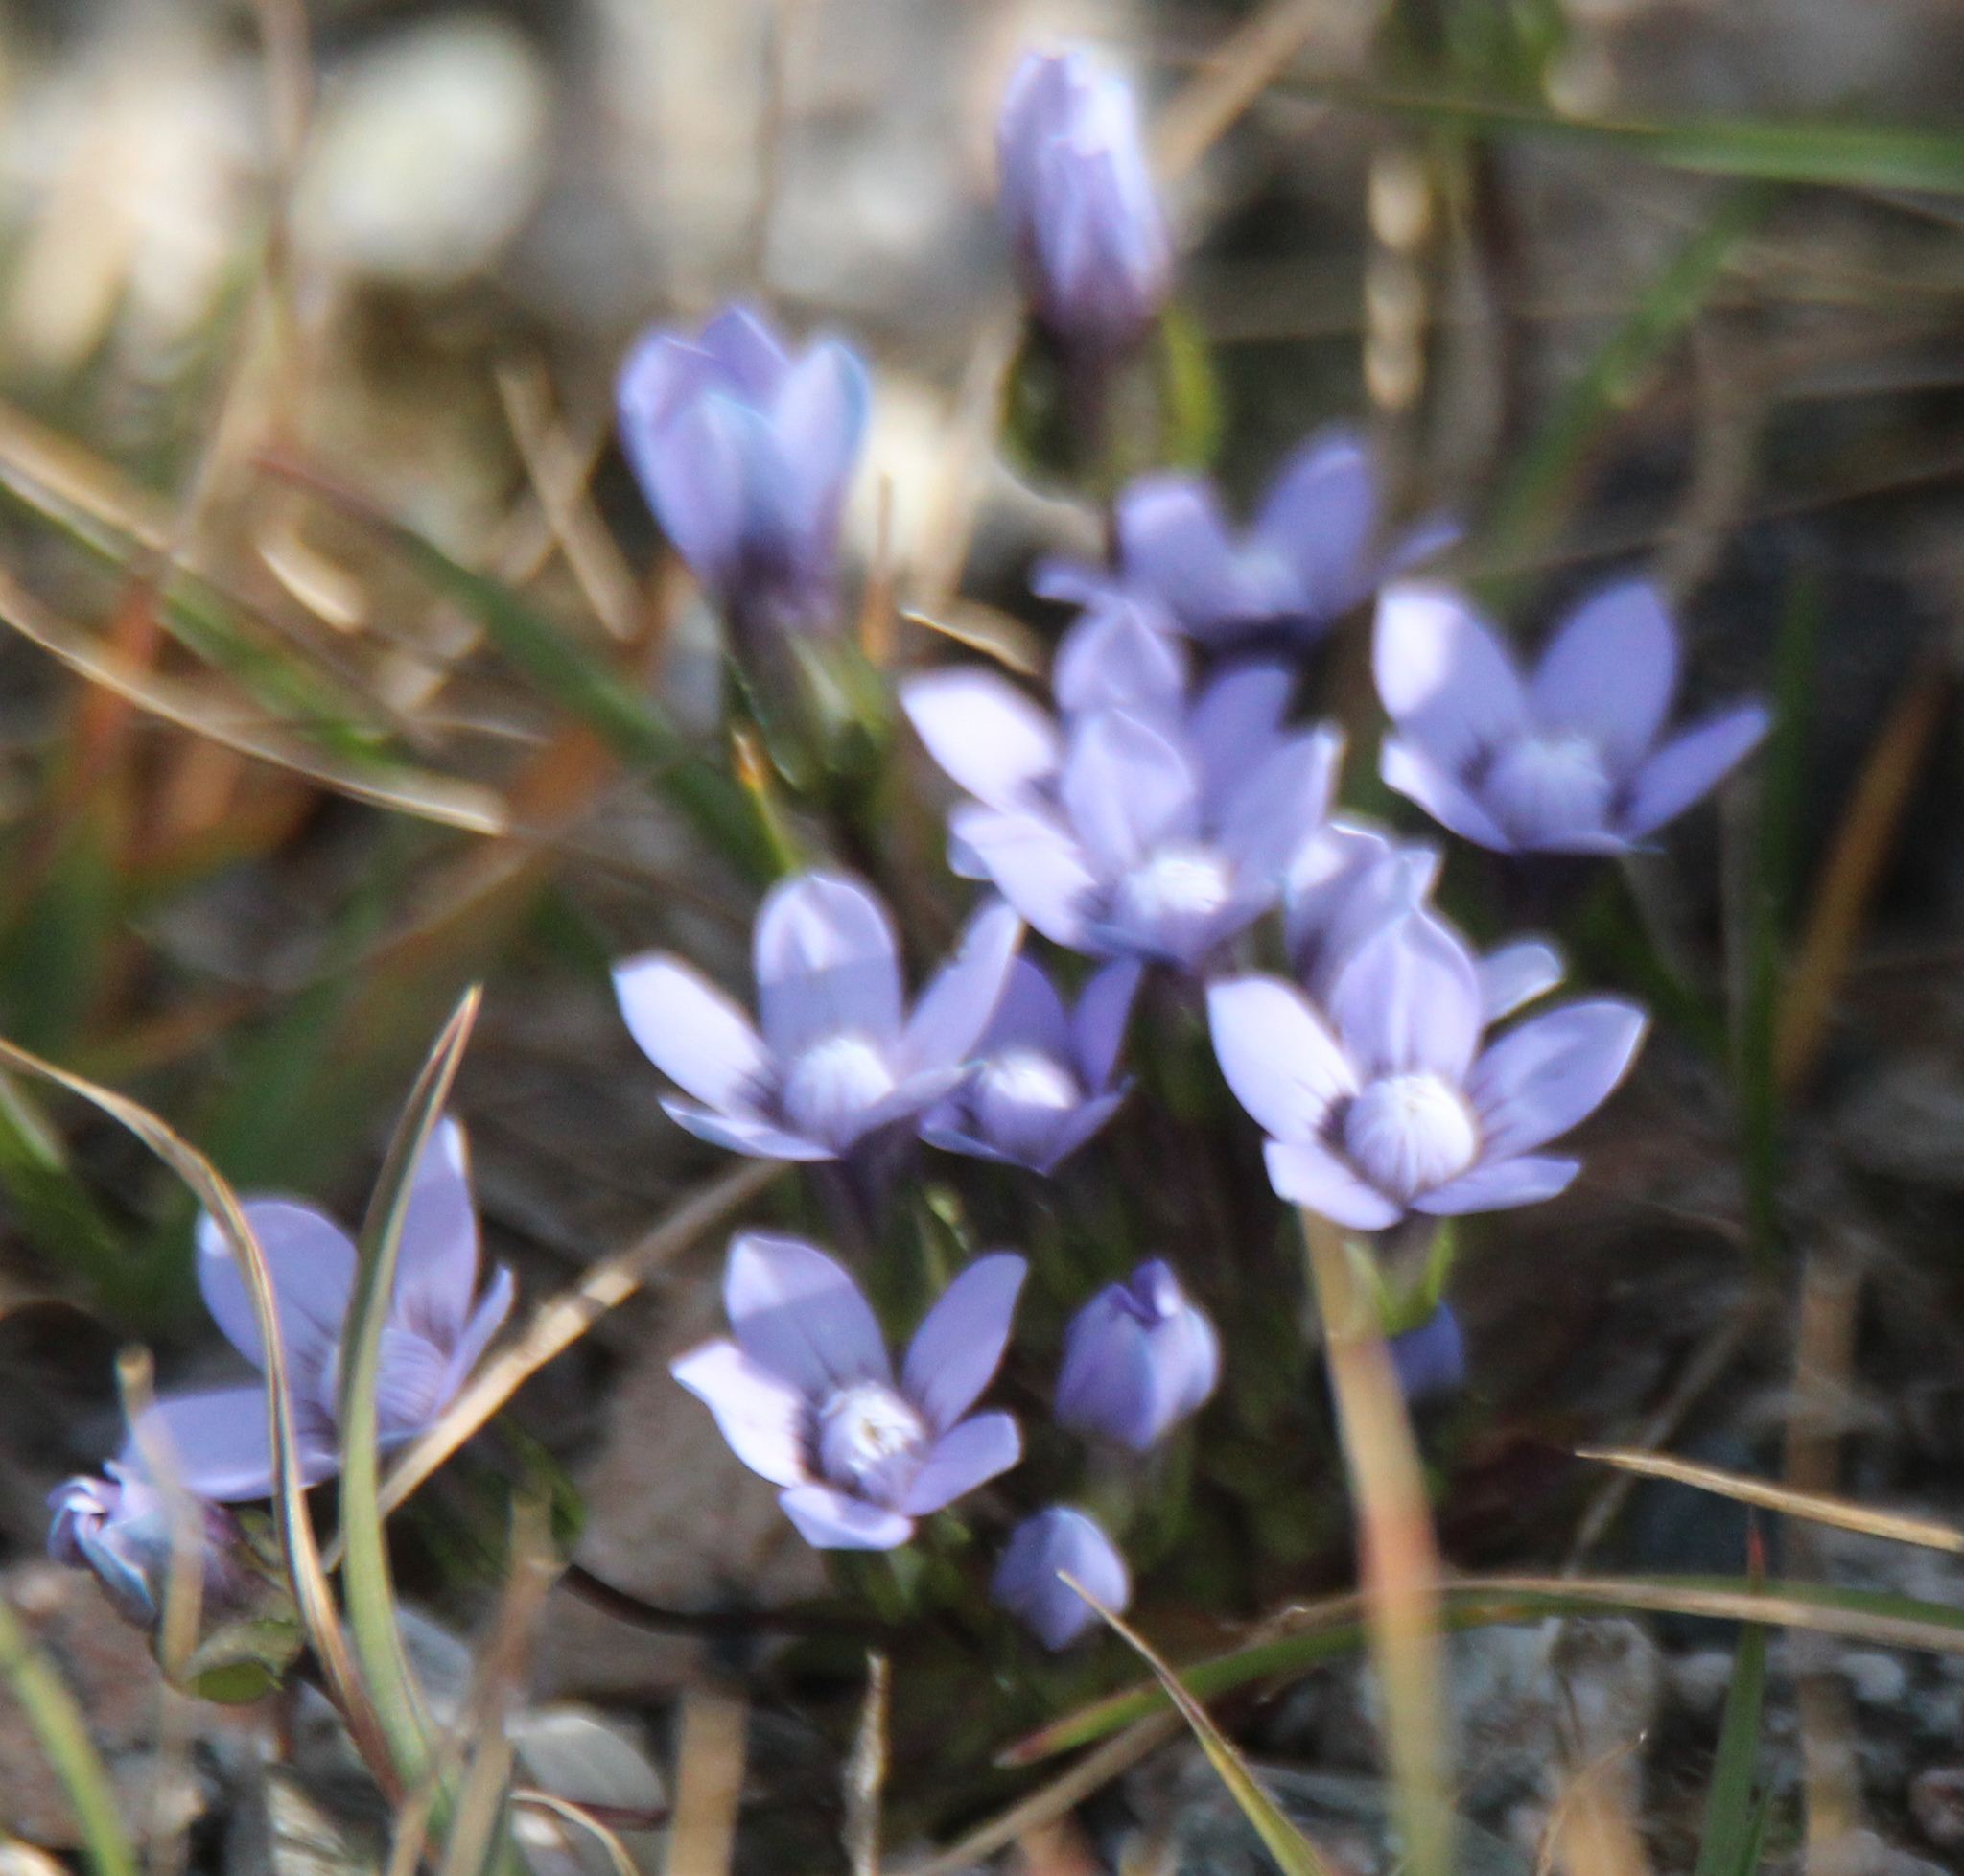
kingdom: Plantae
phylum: Tracheophyta
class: Magnoliopsida
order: Gentianales
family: Gentianaceae
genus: Comastoma
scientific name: Comastoma falcatum
